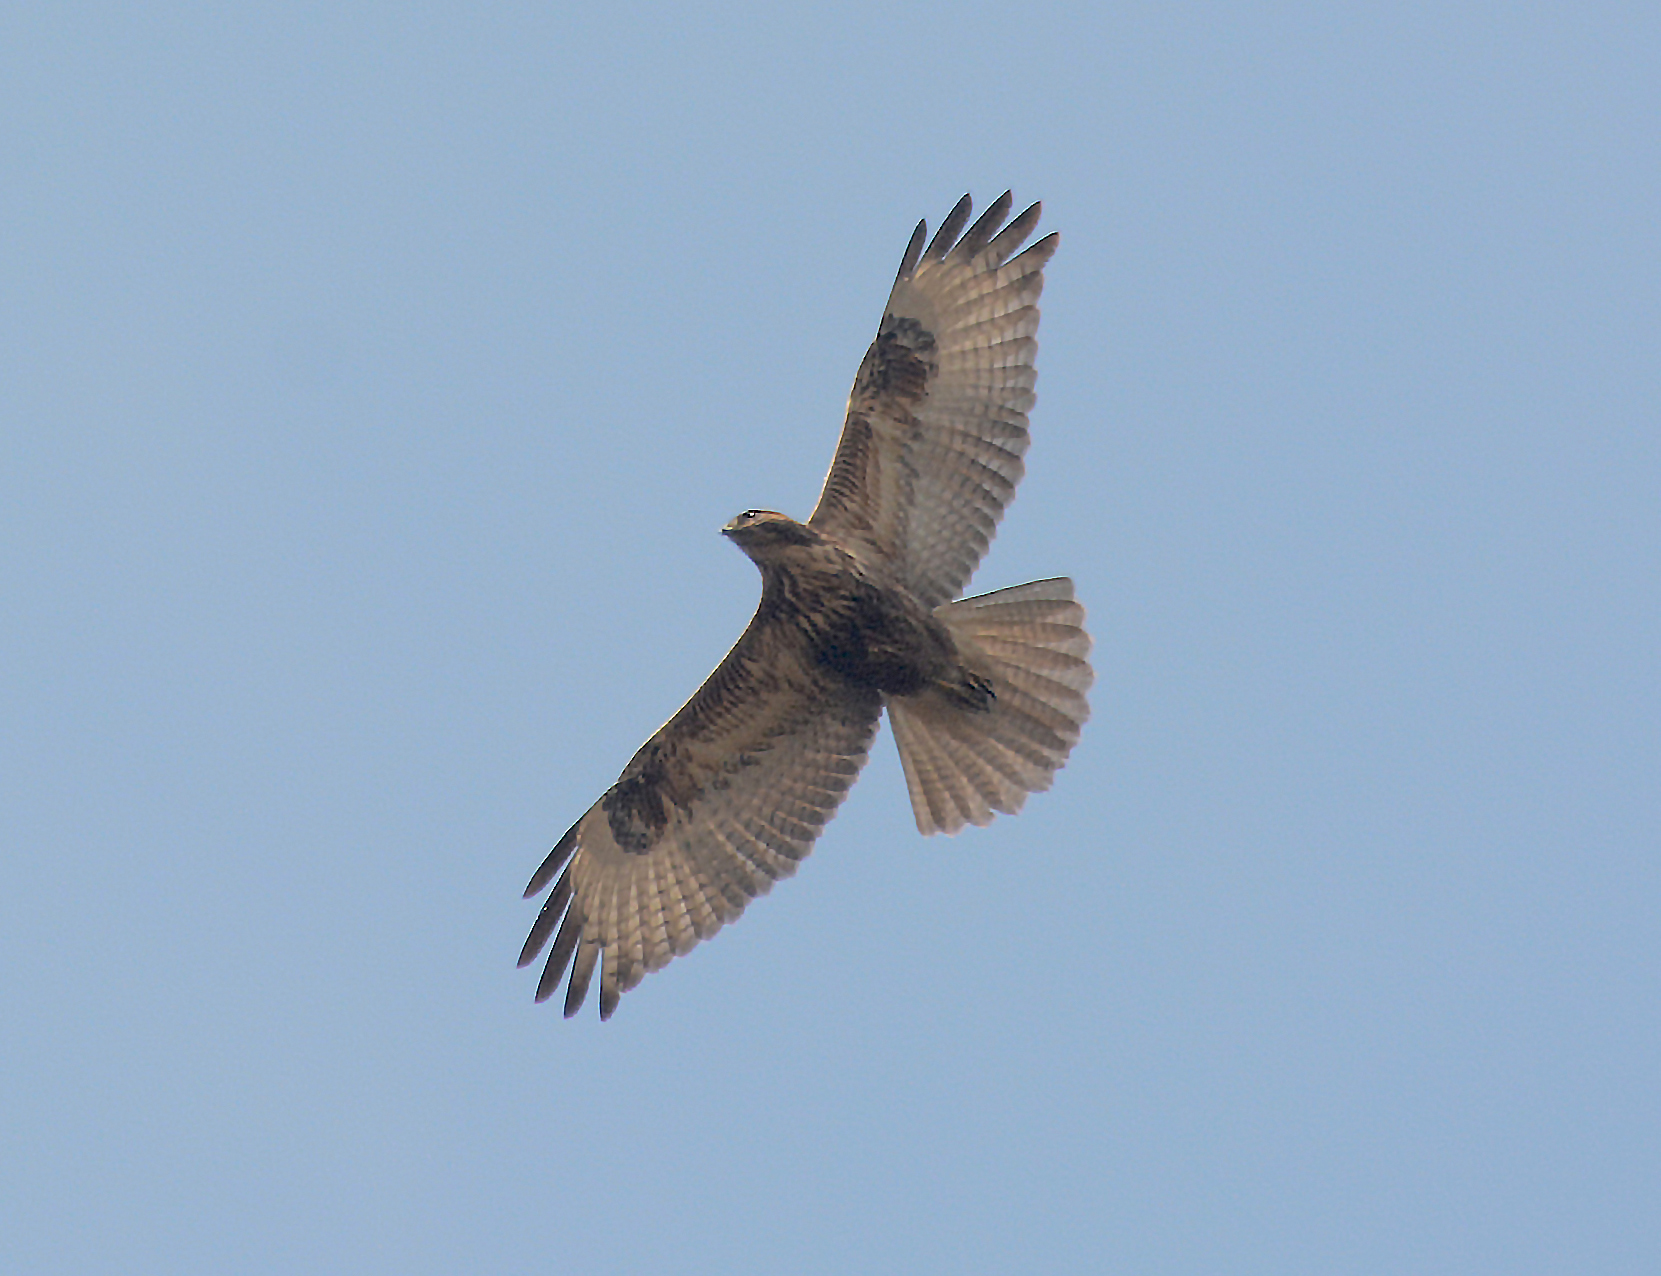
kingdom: Animalia
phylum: Chordata
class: Aves
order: Accipitriformes
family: Accipitridae
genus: Buteo
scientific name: Buteo buteo
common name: Common buzzard
